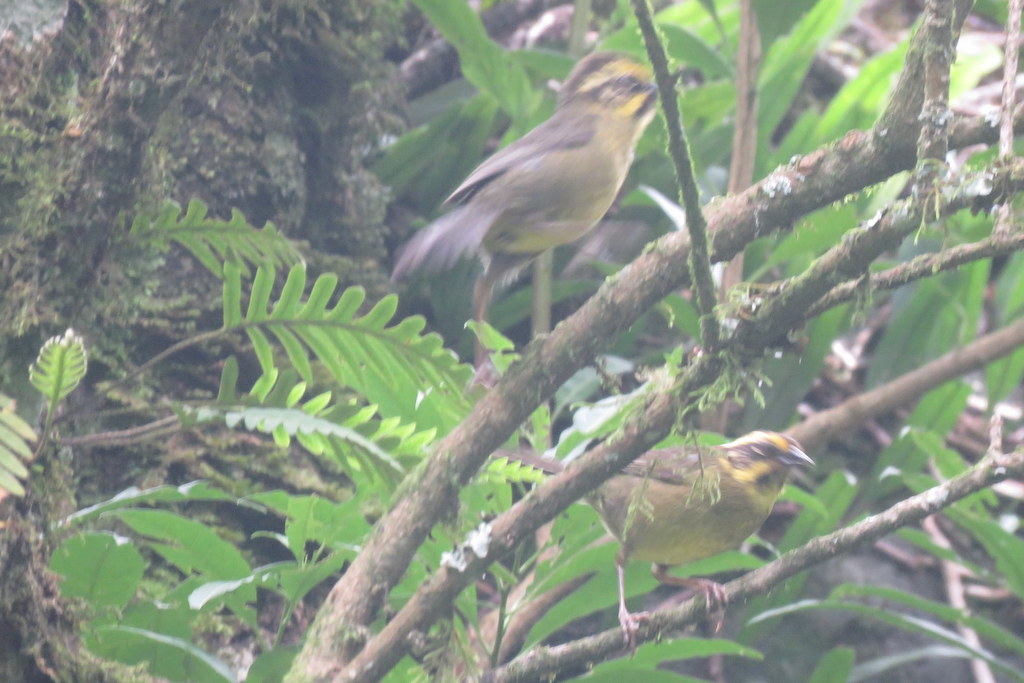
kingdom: Animalia
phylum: Chordata
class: Aves
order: Passeriformes
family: Passerellidae
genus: Atlapetes
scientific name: Atlapetes citrinellus
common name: Yellow-striped brushfinch
